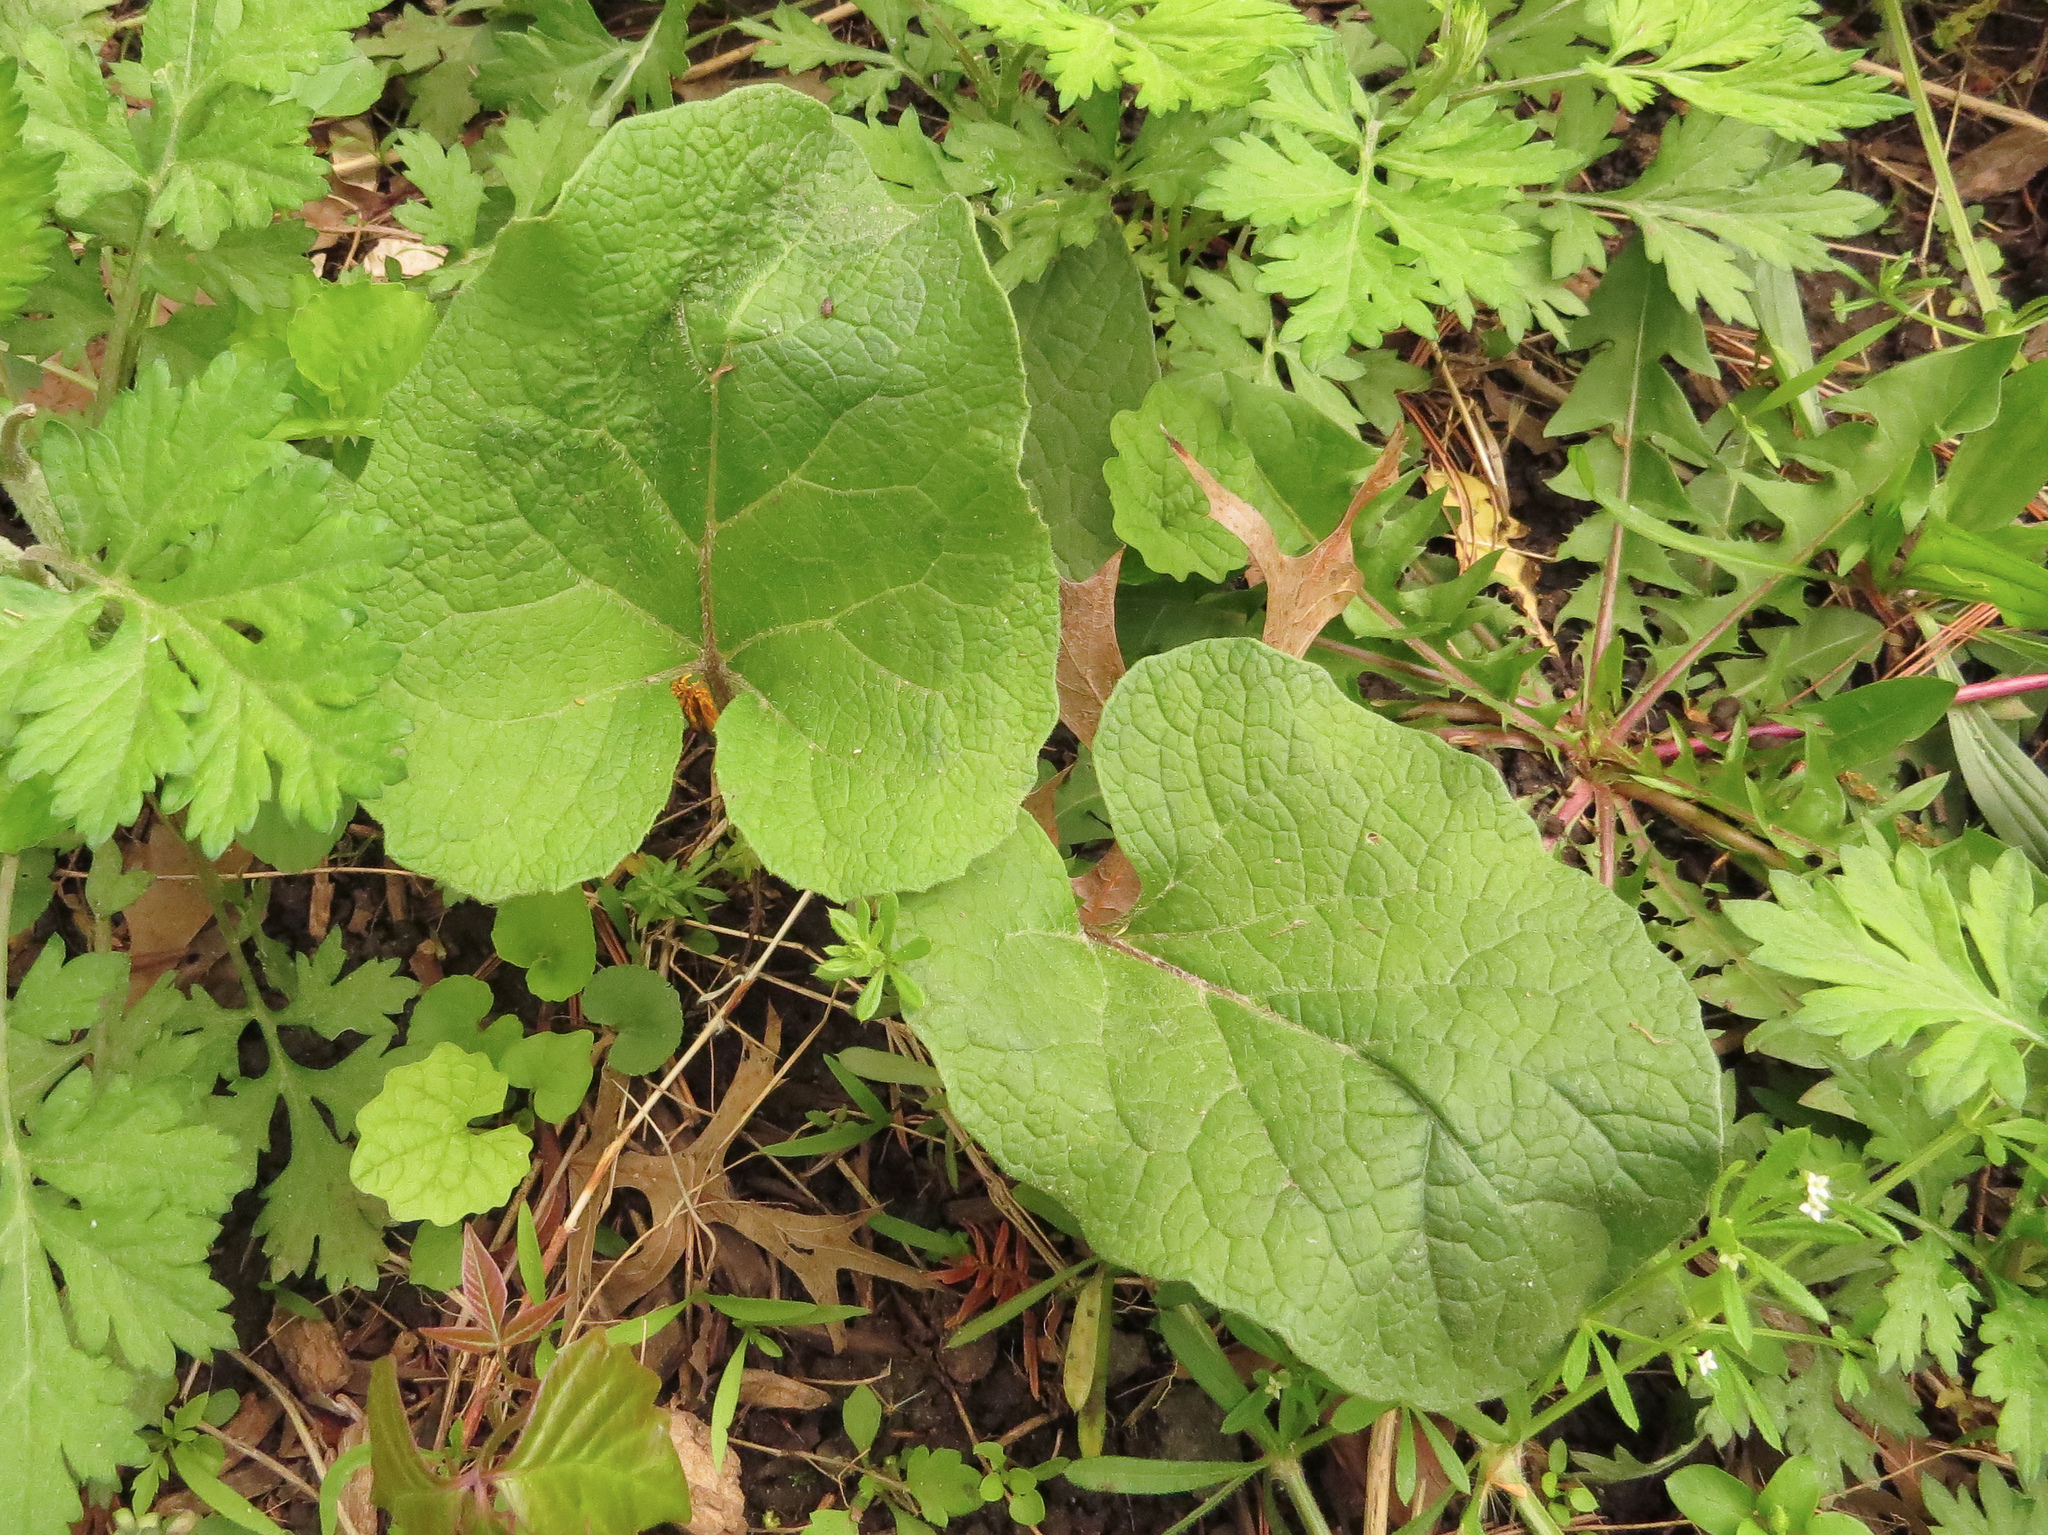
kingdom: Plantae
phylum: Tracheophyta
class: Magnoliopsida
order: Asterales
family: Asteraceae
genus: Arctium
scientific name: Arctium
